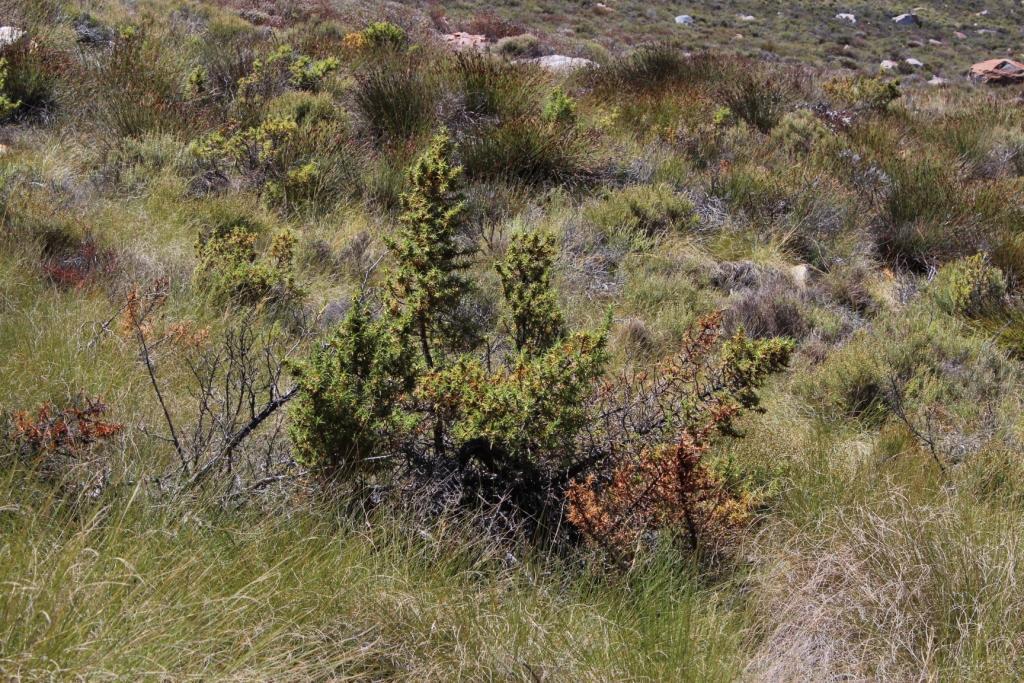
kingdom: Plantae
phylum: Tracheophyta
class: Magnoliopsida
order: Rosales
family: Rosaceae
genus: Cliffortia
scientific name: Cliffortia dregeana
